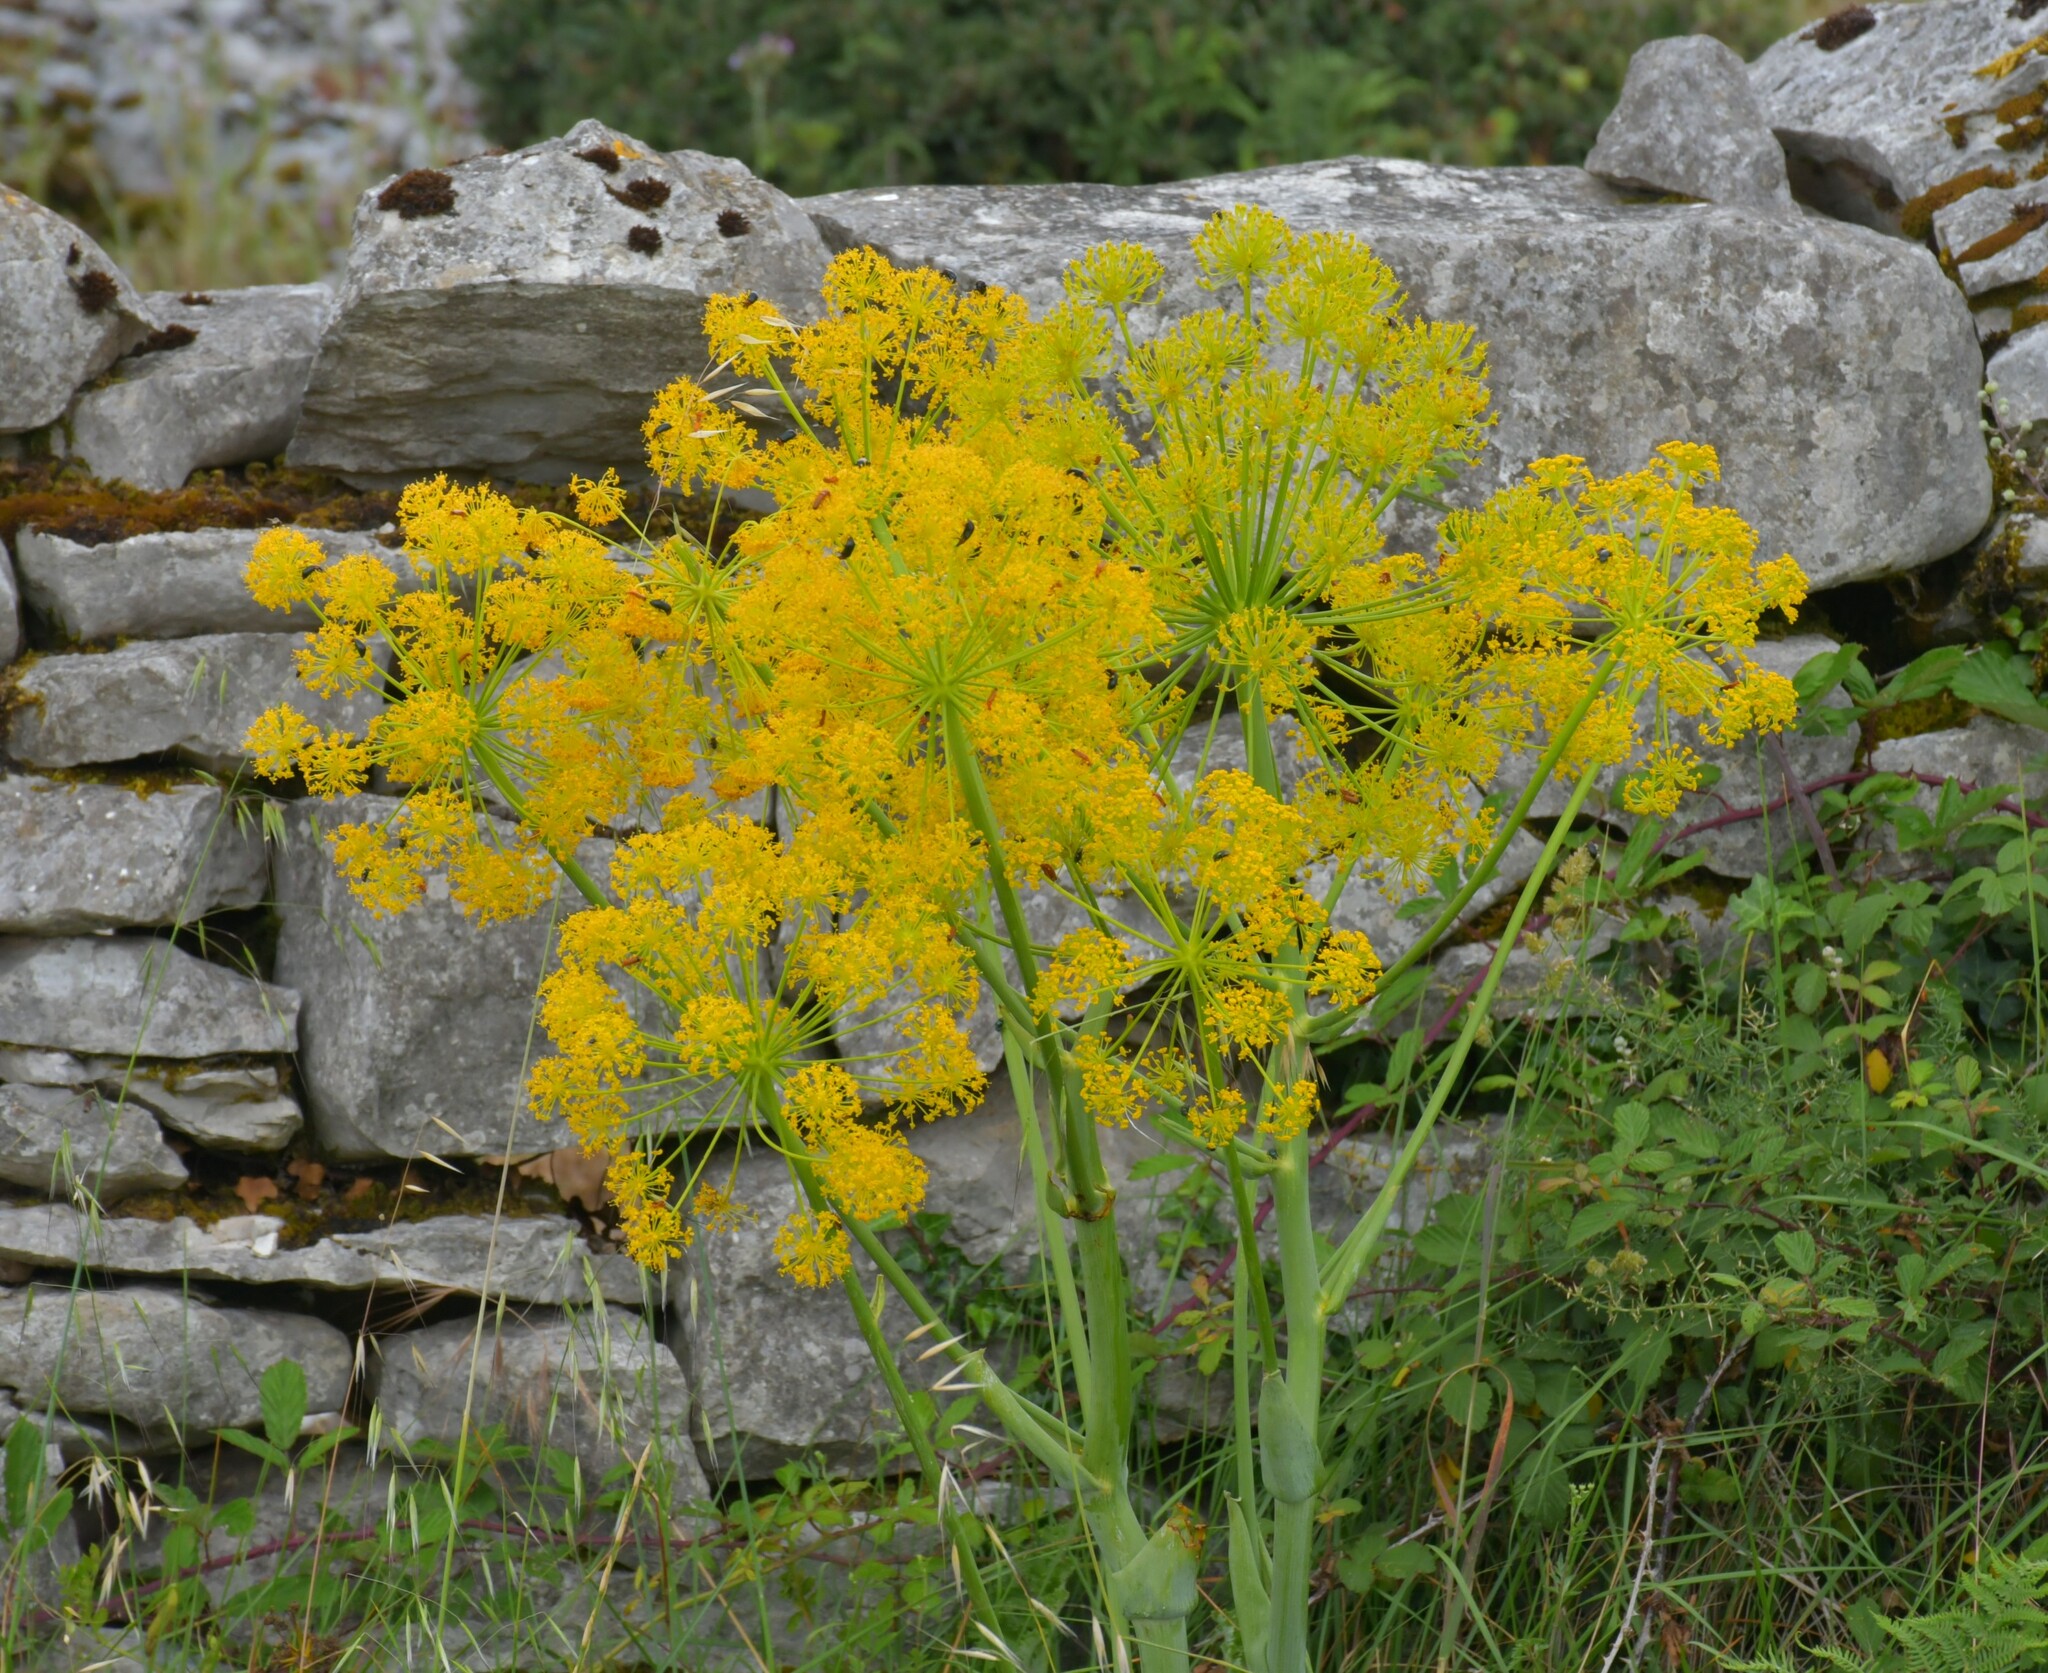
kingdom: Plantae
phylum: Tracheophyta
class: Magnoliopsida
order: Apiales
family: Apiaceae
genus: Thapsia
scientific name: Thapsia villosa
